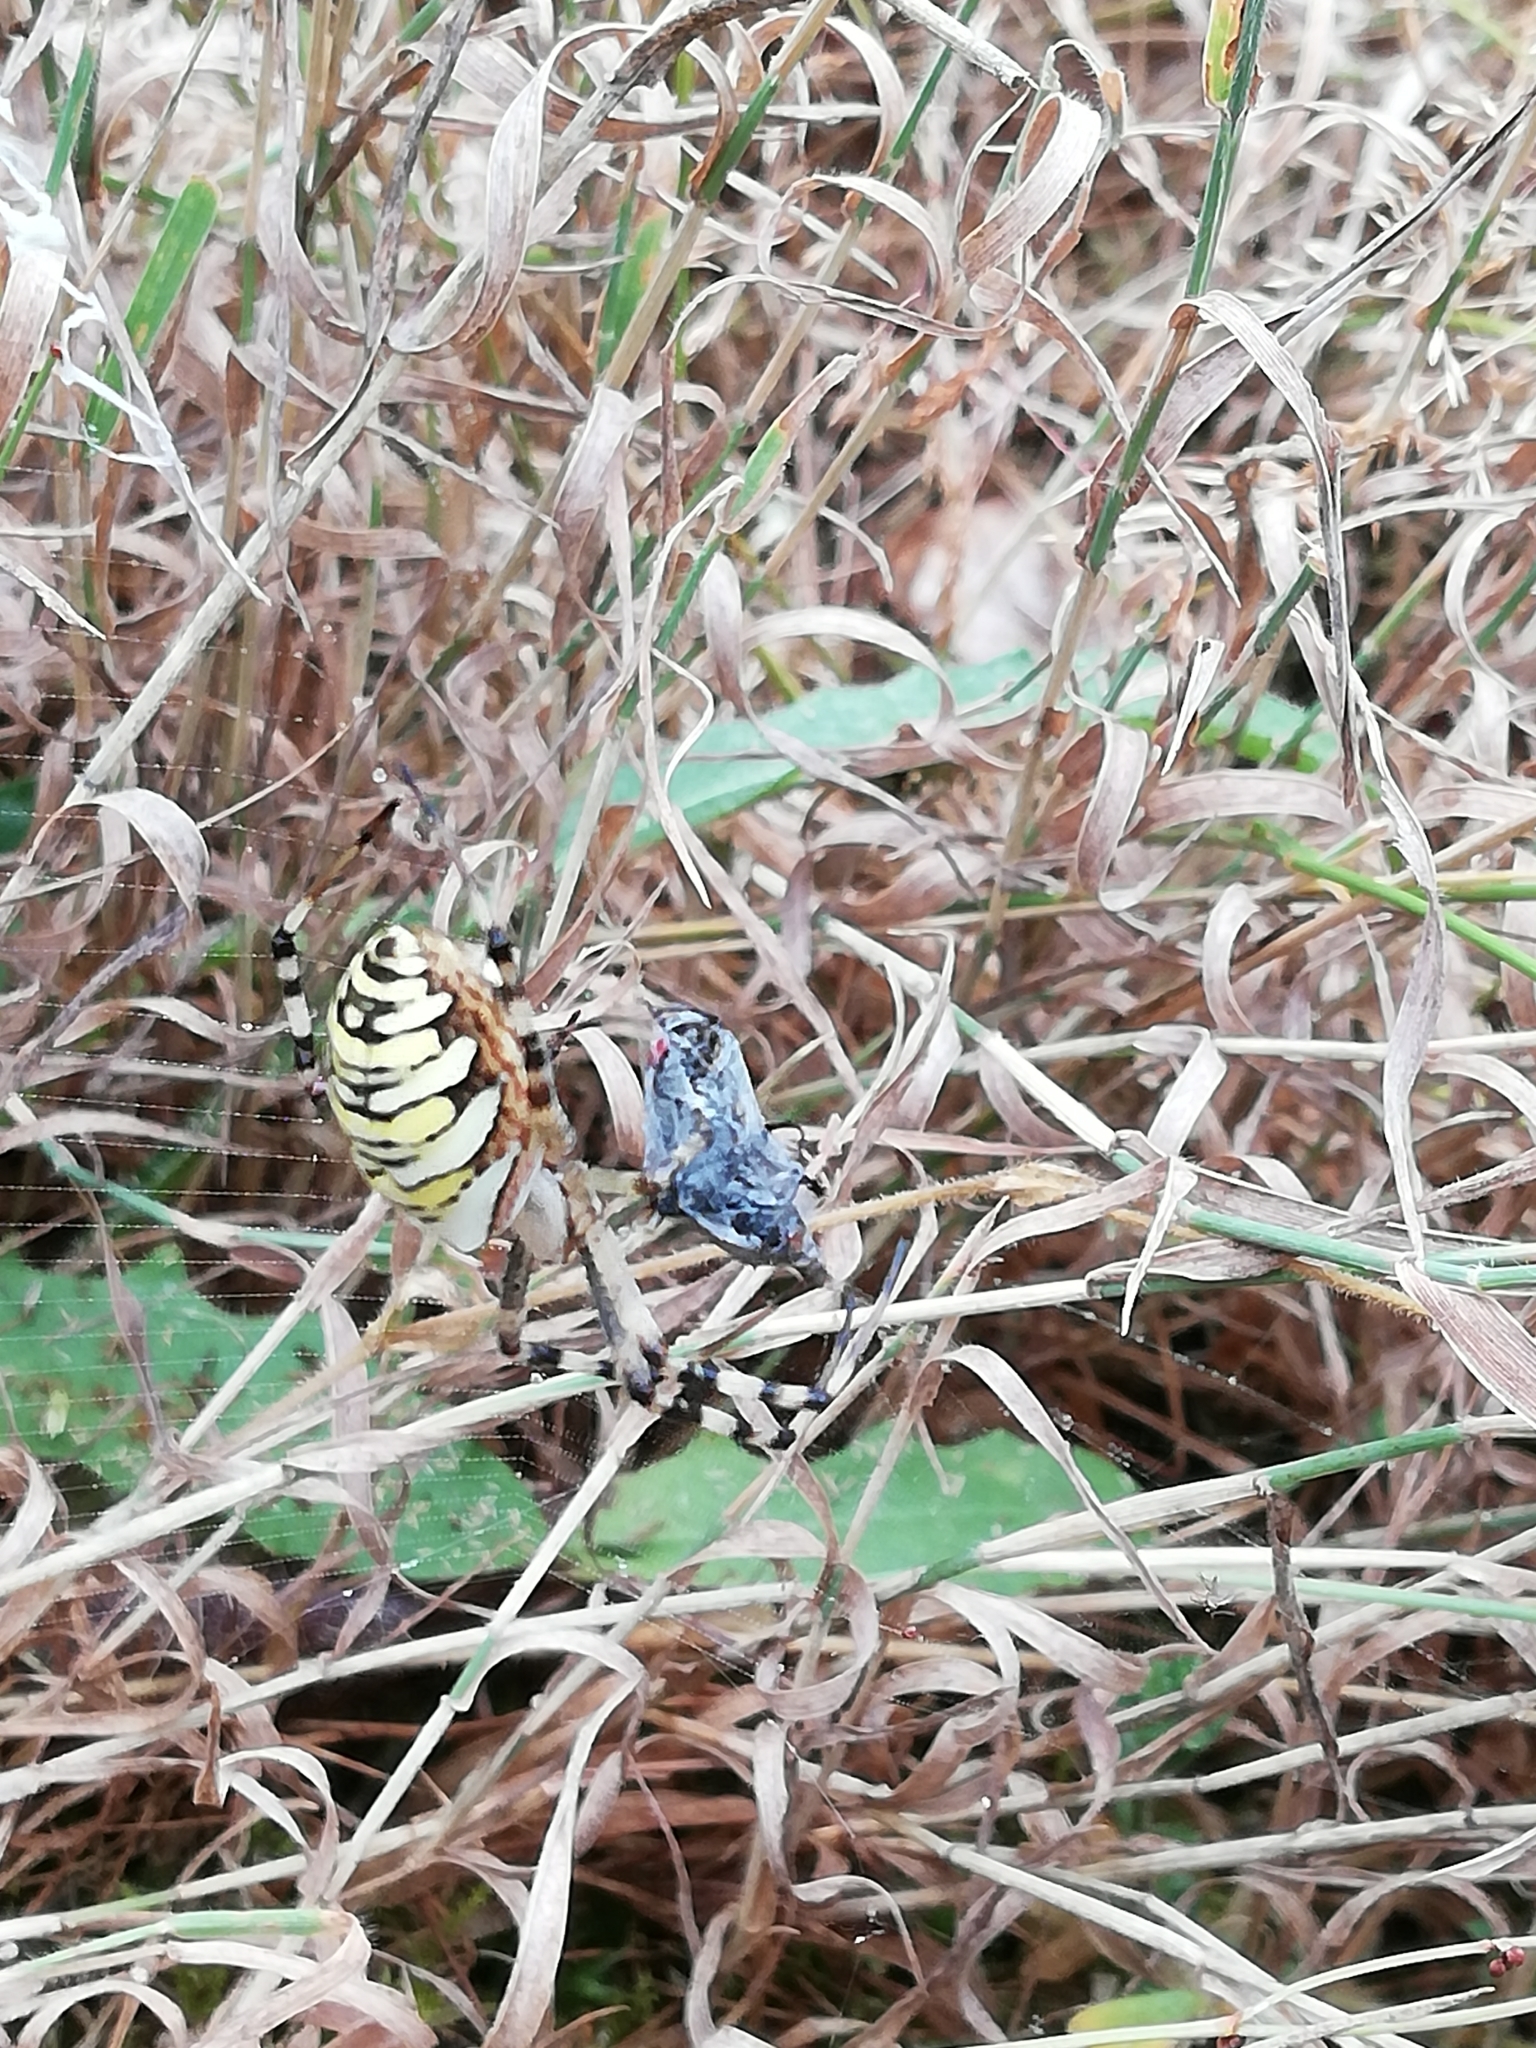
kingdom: Animalia
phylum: Arthropoda
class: Arachnida
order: Araneae
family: Araneidae
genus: Argiope
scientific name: Argiope bruennichi
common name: Wasp spider
